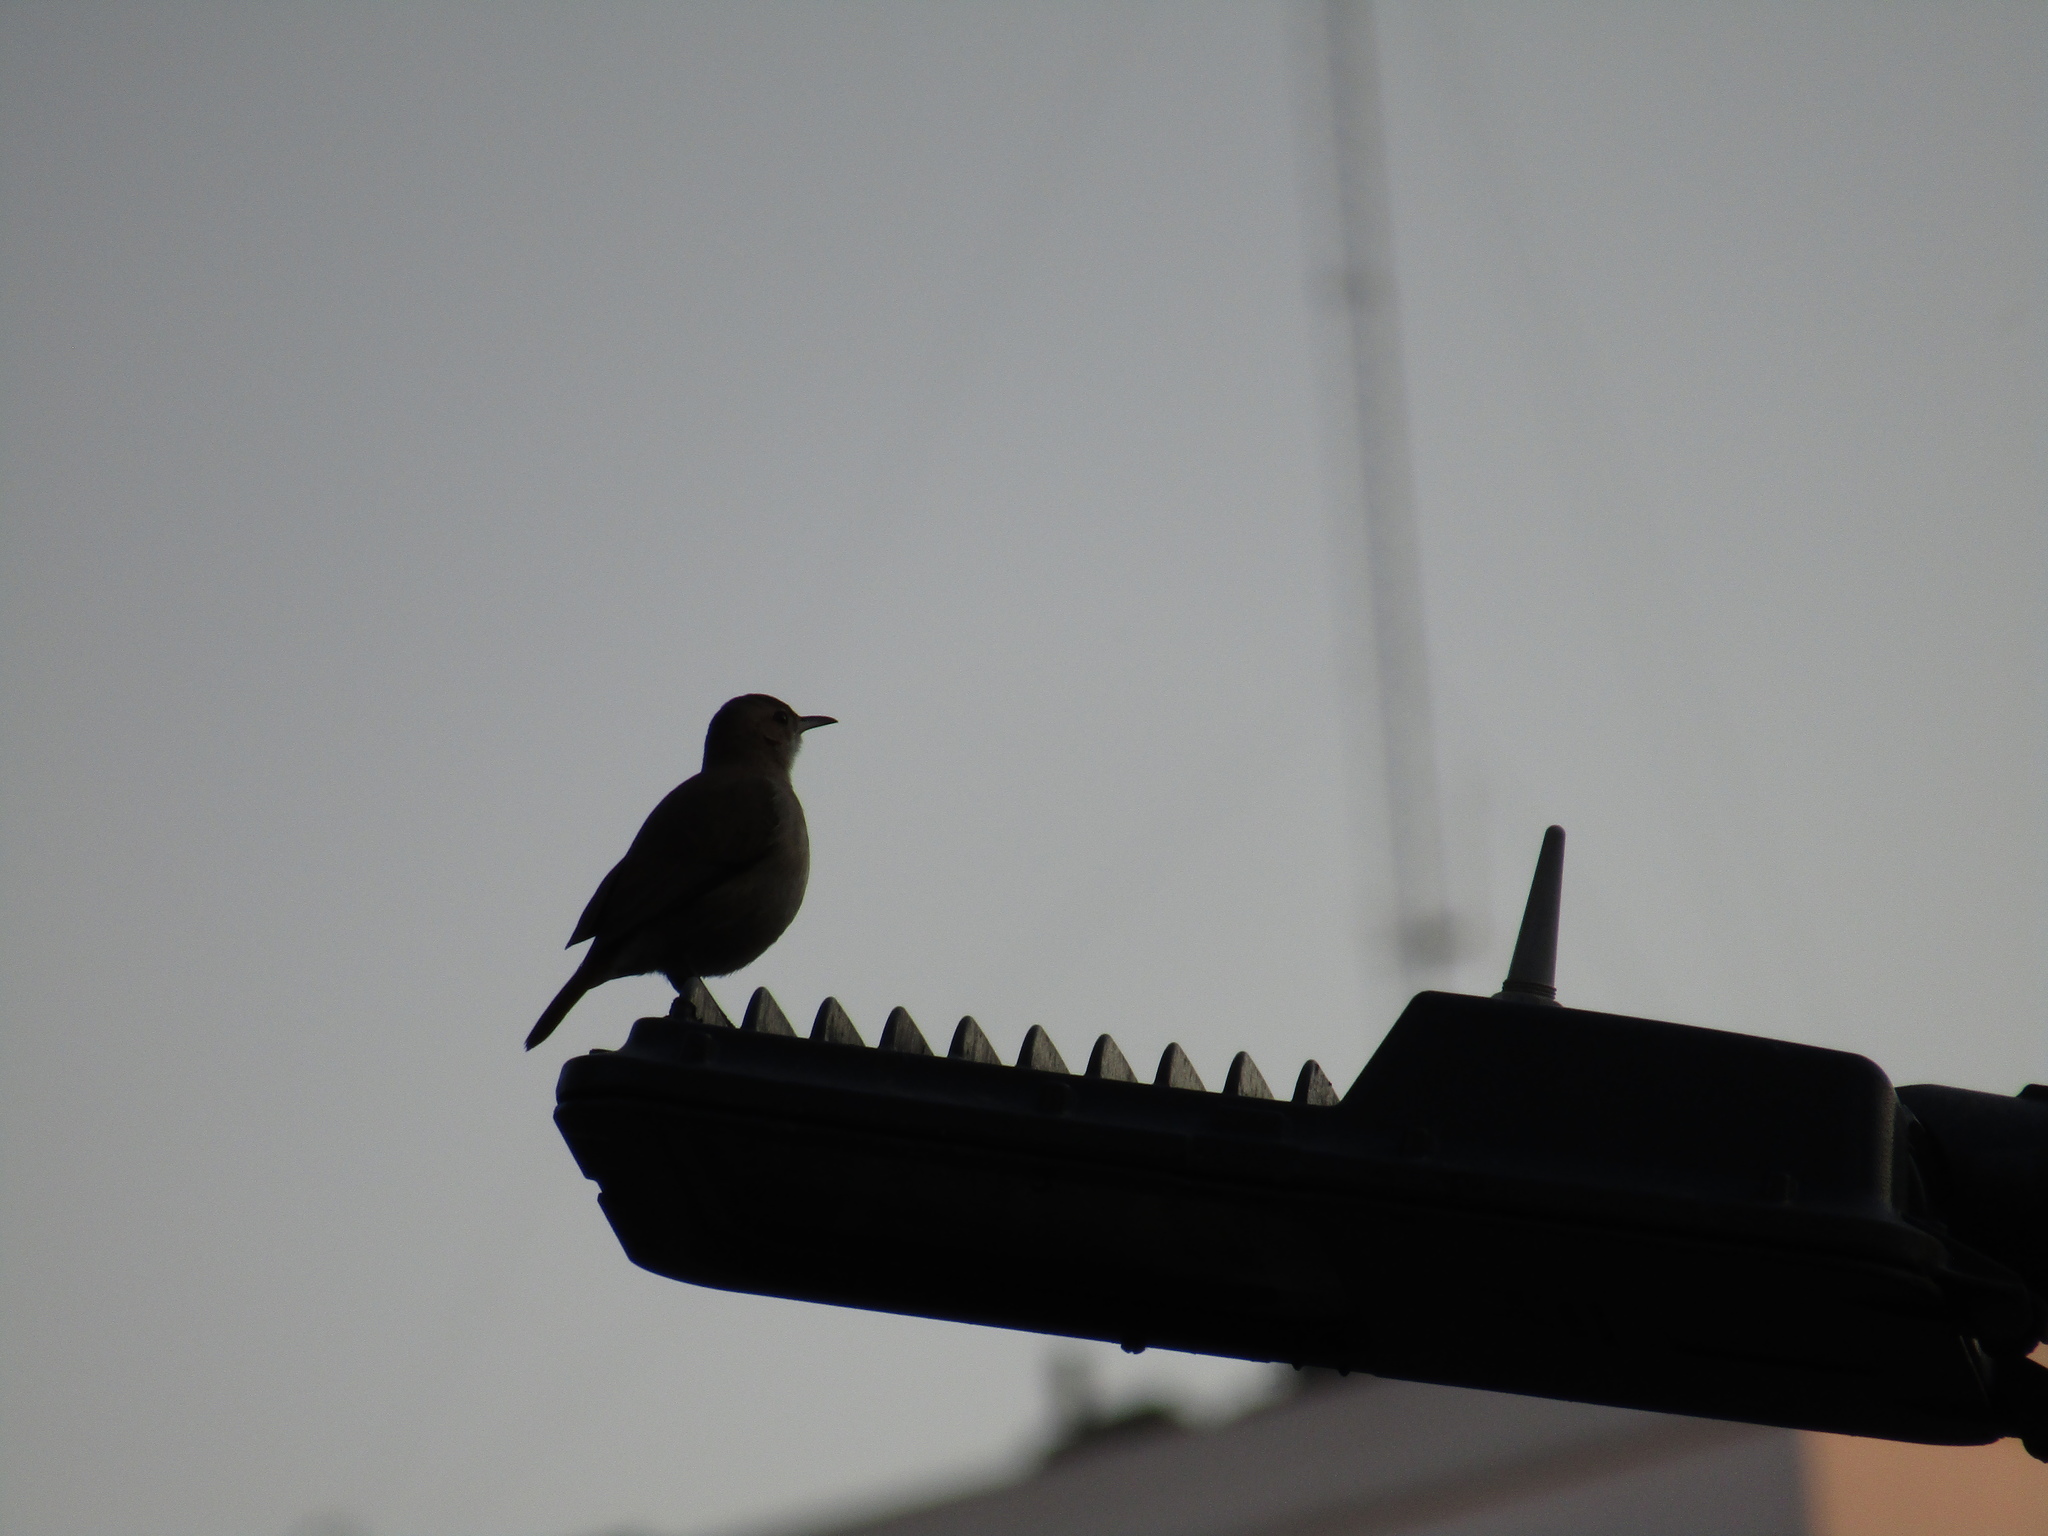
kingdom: Animalia
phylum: Chordata
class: Aves
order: Passeriformes
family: Furnariidae
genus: Furnarius
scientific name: Furnarius rufus
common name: Rufous hornero
